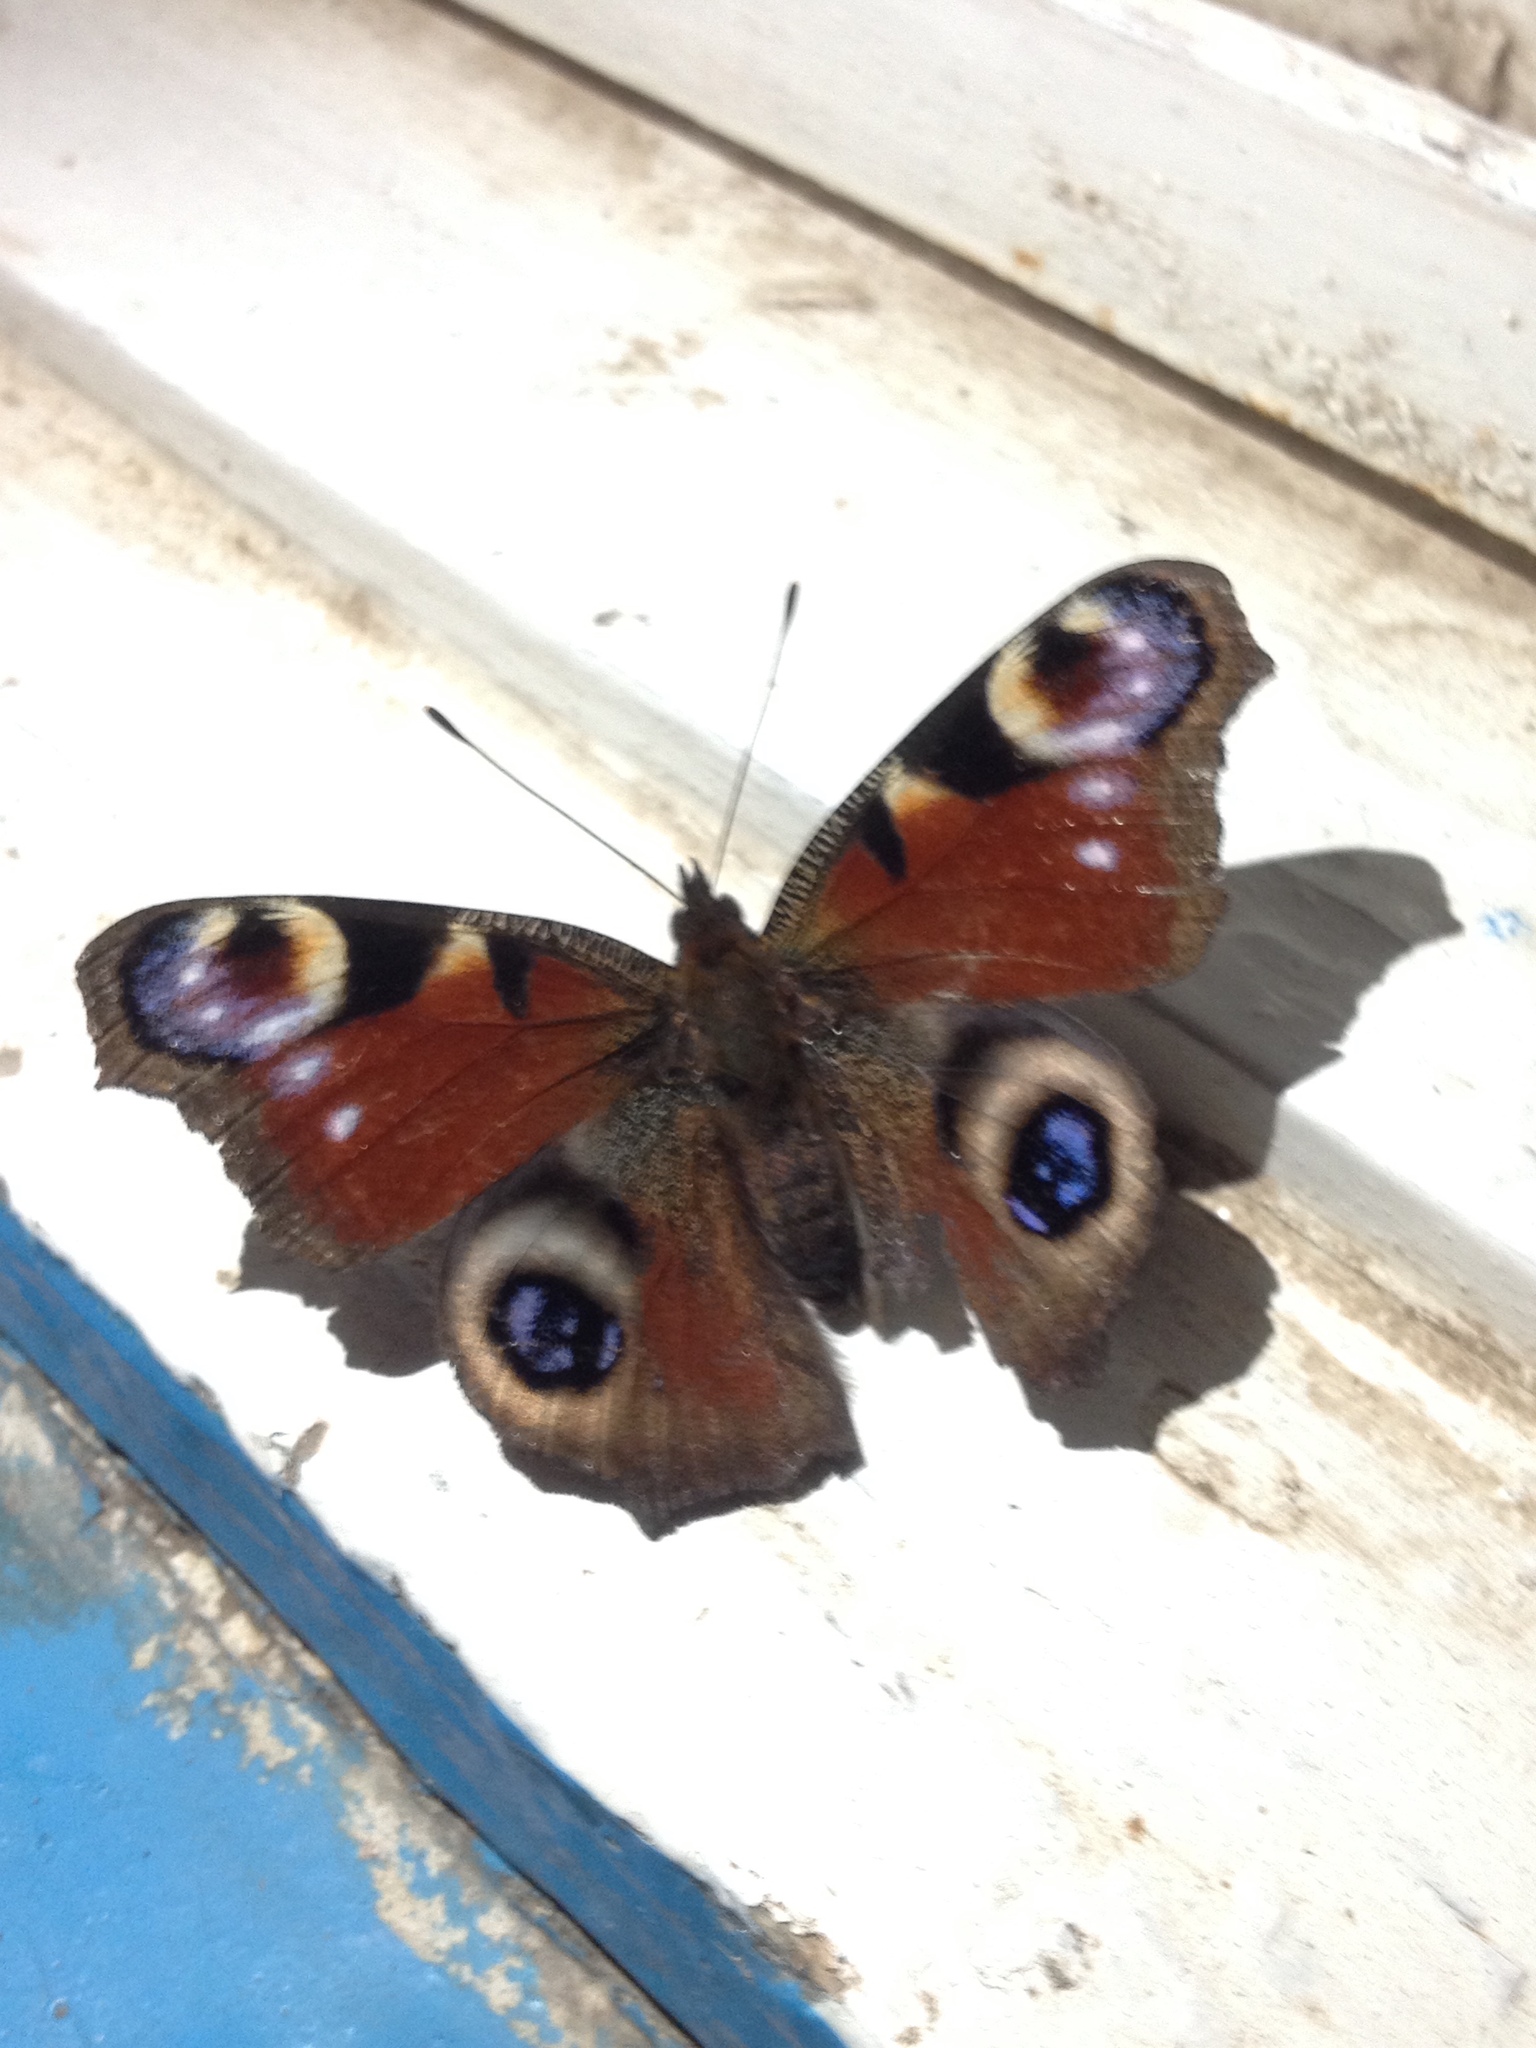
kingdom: Animalia
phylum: Arthropoda
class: Insecta
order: Lepidoptera
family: Nymphalidae
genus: Aglais
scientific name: Aglais io
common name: Peacock
